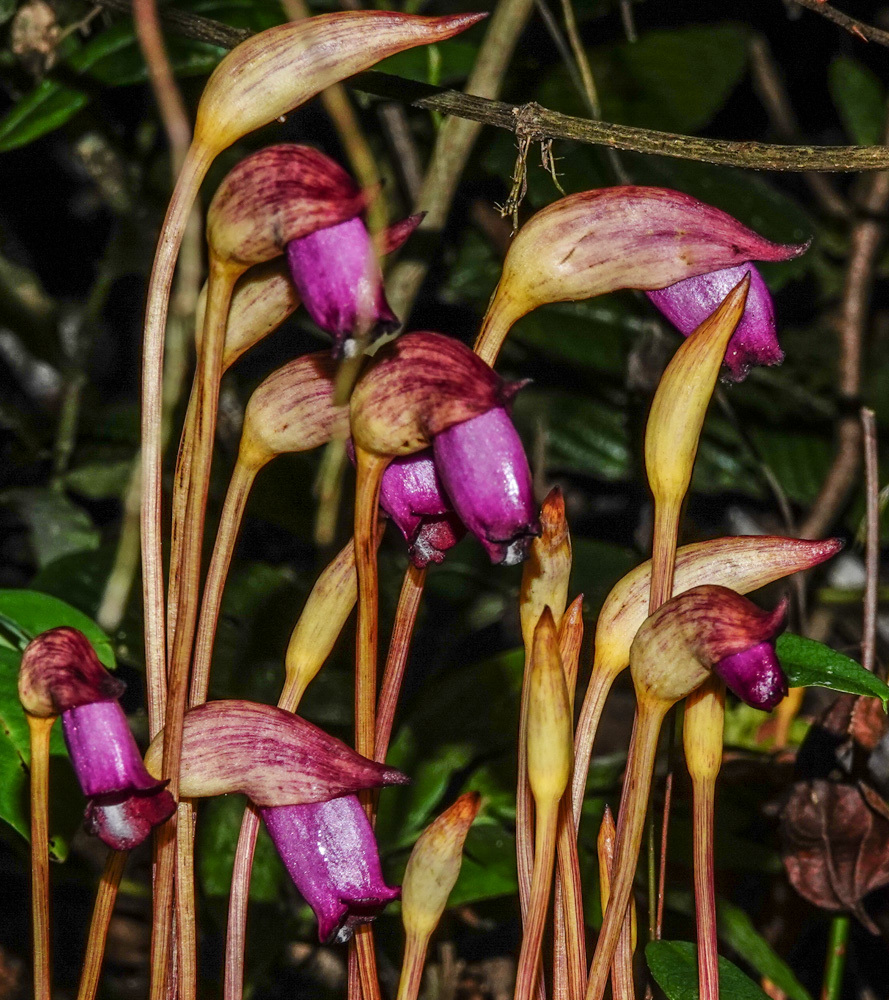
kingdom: Plantae
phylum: Tracheophyta
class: Magnoliopsida
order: Lamiales
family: Orobanchaceae
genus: Aeginetia
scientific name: Aeginetia indica
